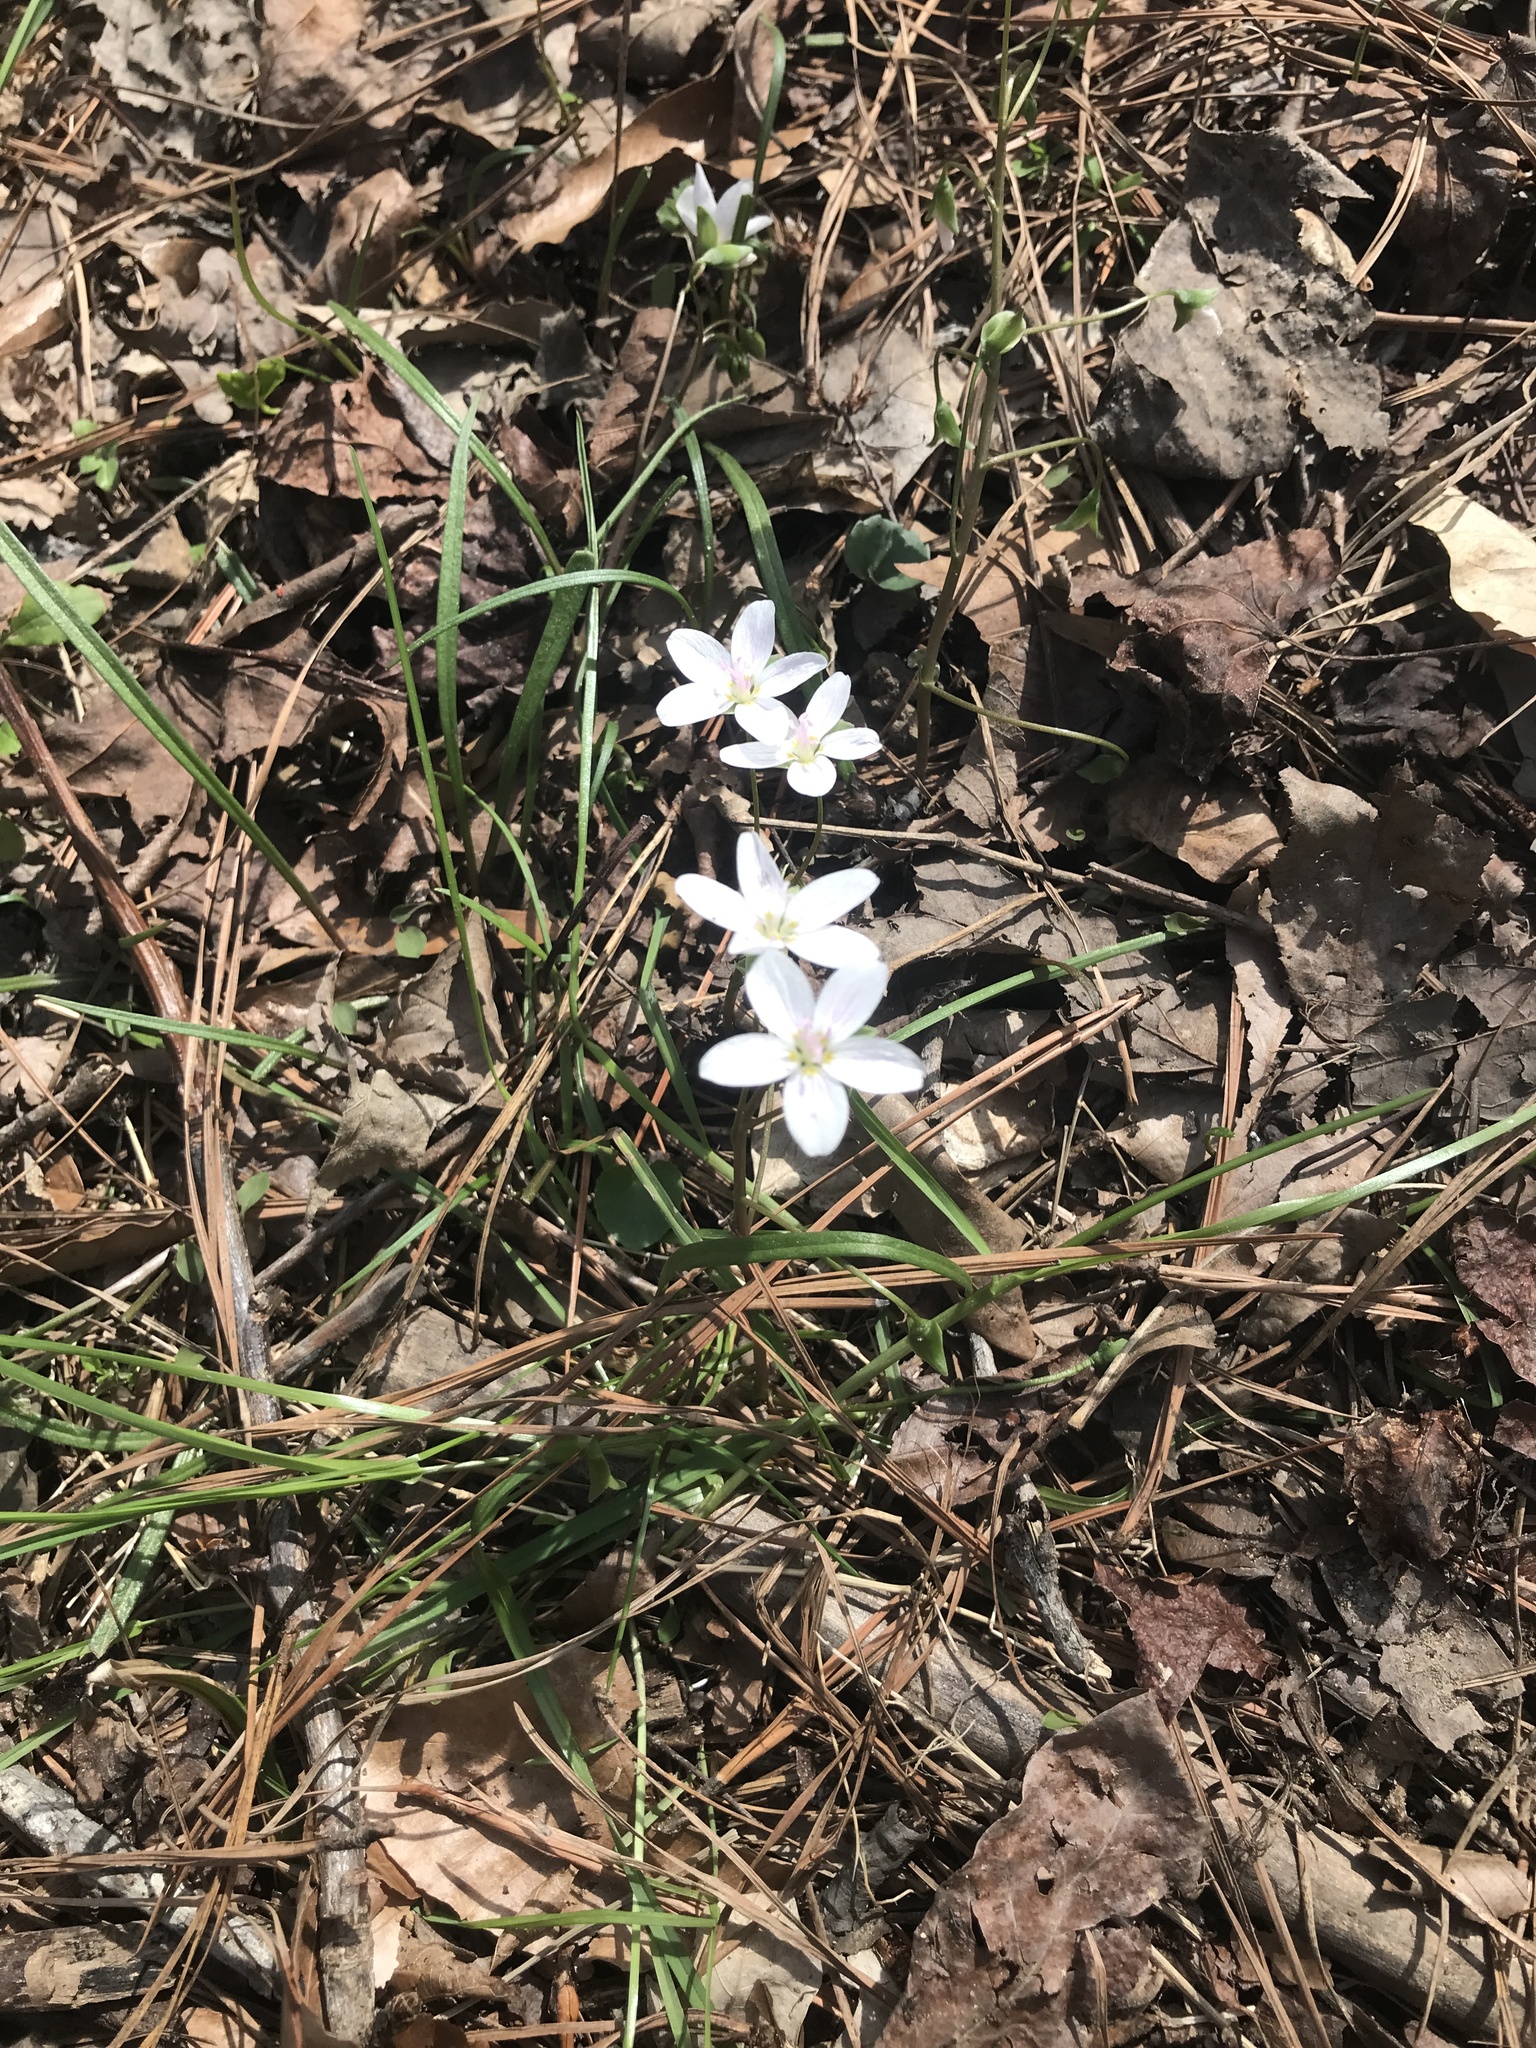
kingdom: Plantae
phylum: Tracheophyta
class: Magnoliopsida
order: Caryophyllales
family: Montiaceae
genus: Claytonia
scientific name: Claytonia virginica
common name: Virginia springbeauty
